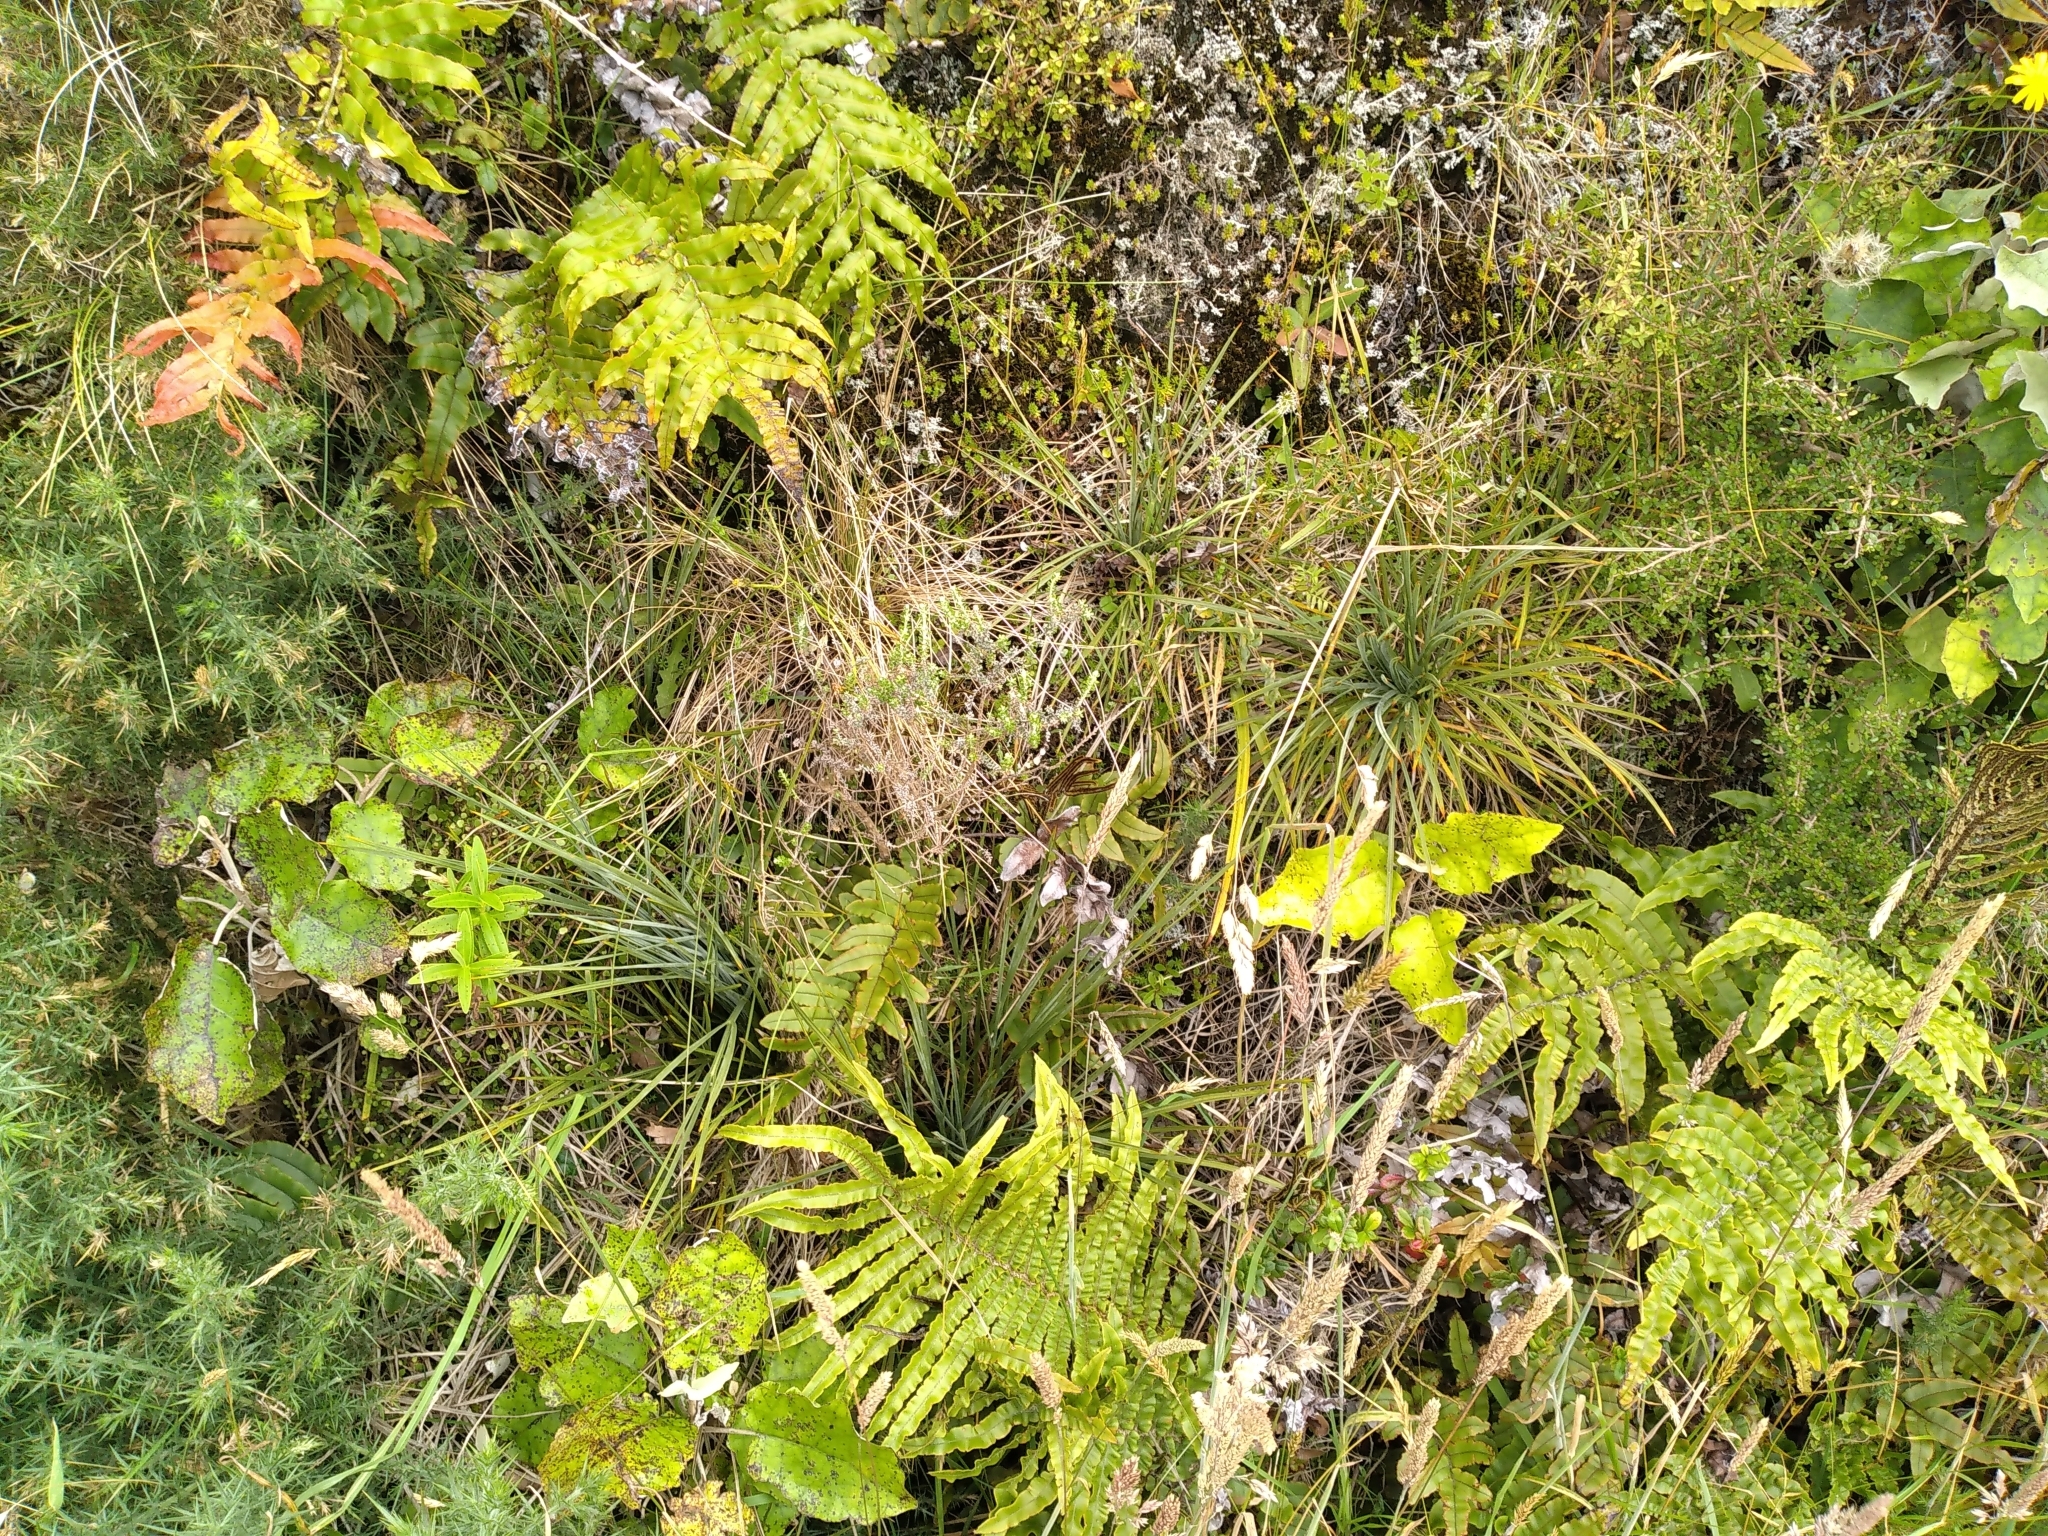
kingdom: Plantae
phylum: Tracheophyta
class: Magnoliopsida
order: Apiales
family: Apiaceae
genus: Aciphylla
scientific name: Aciphylla squarrosa
